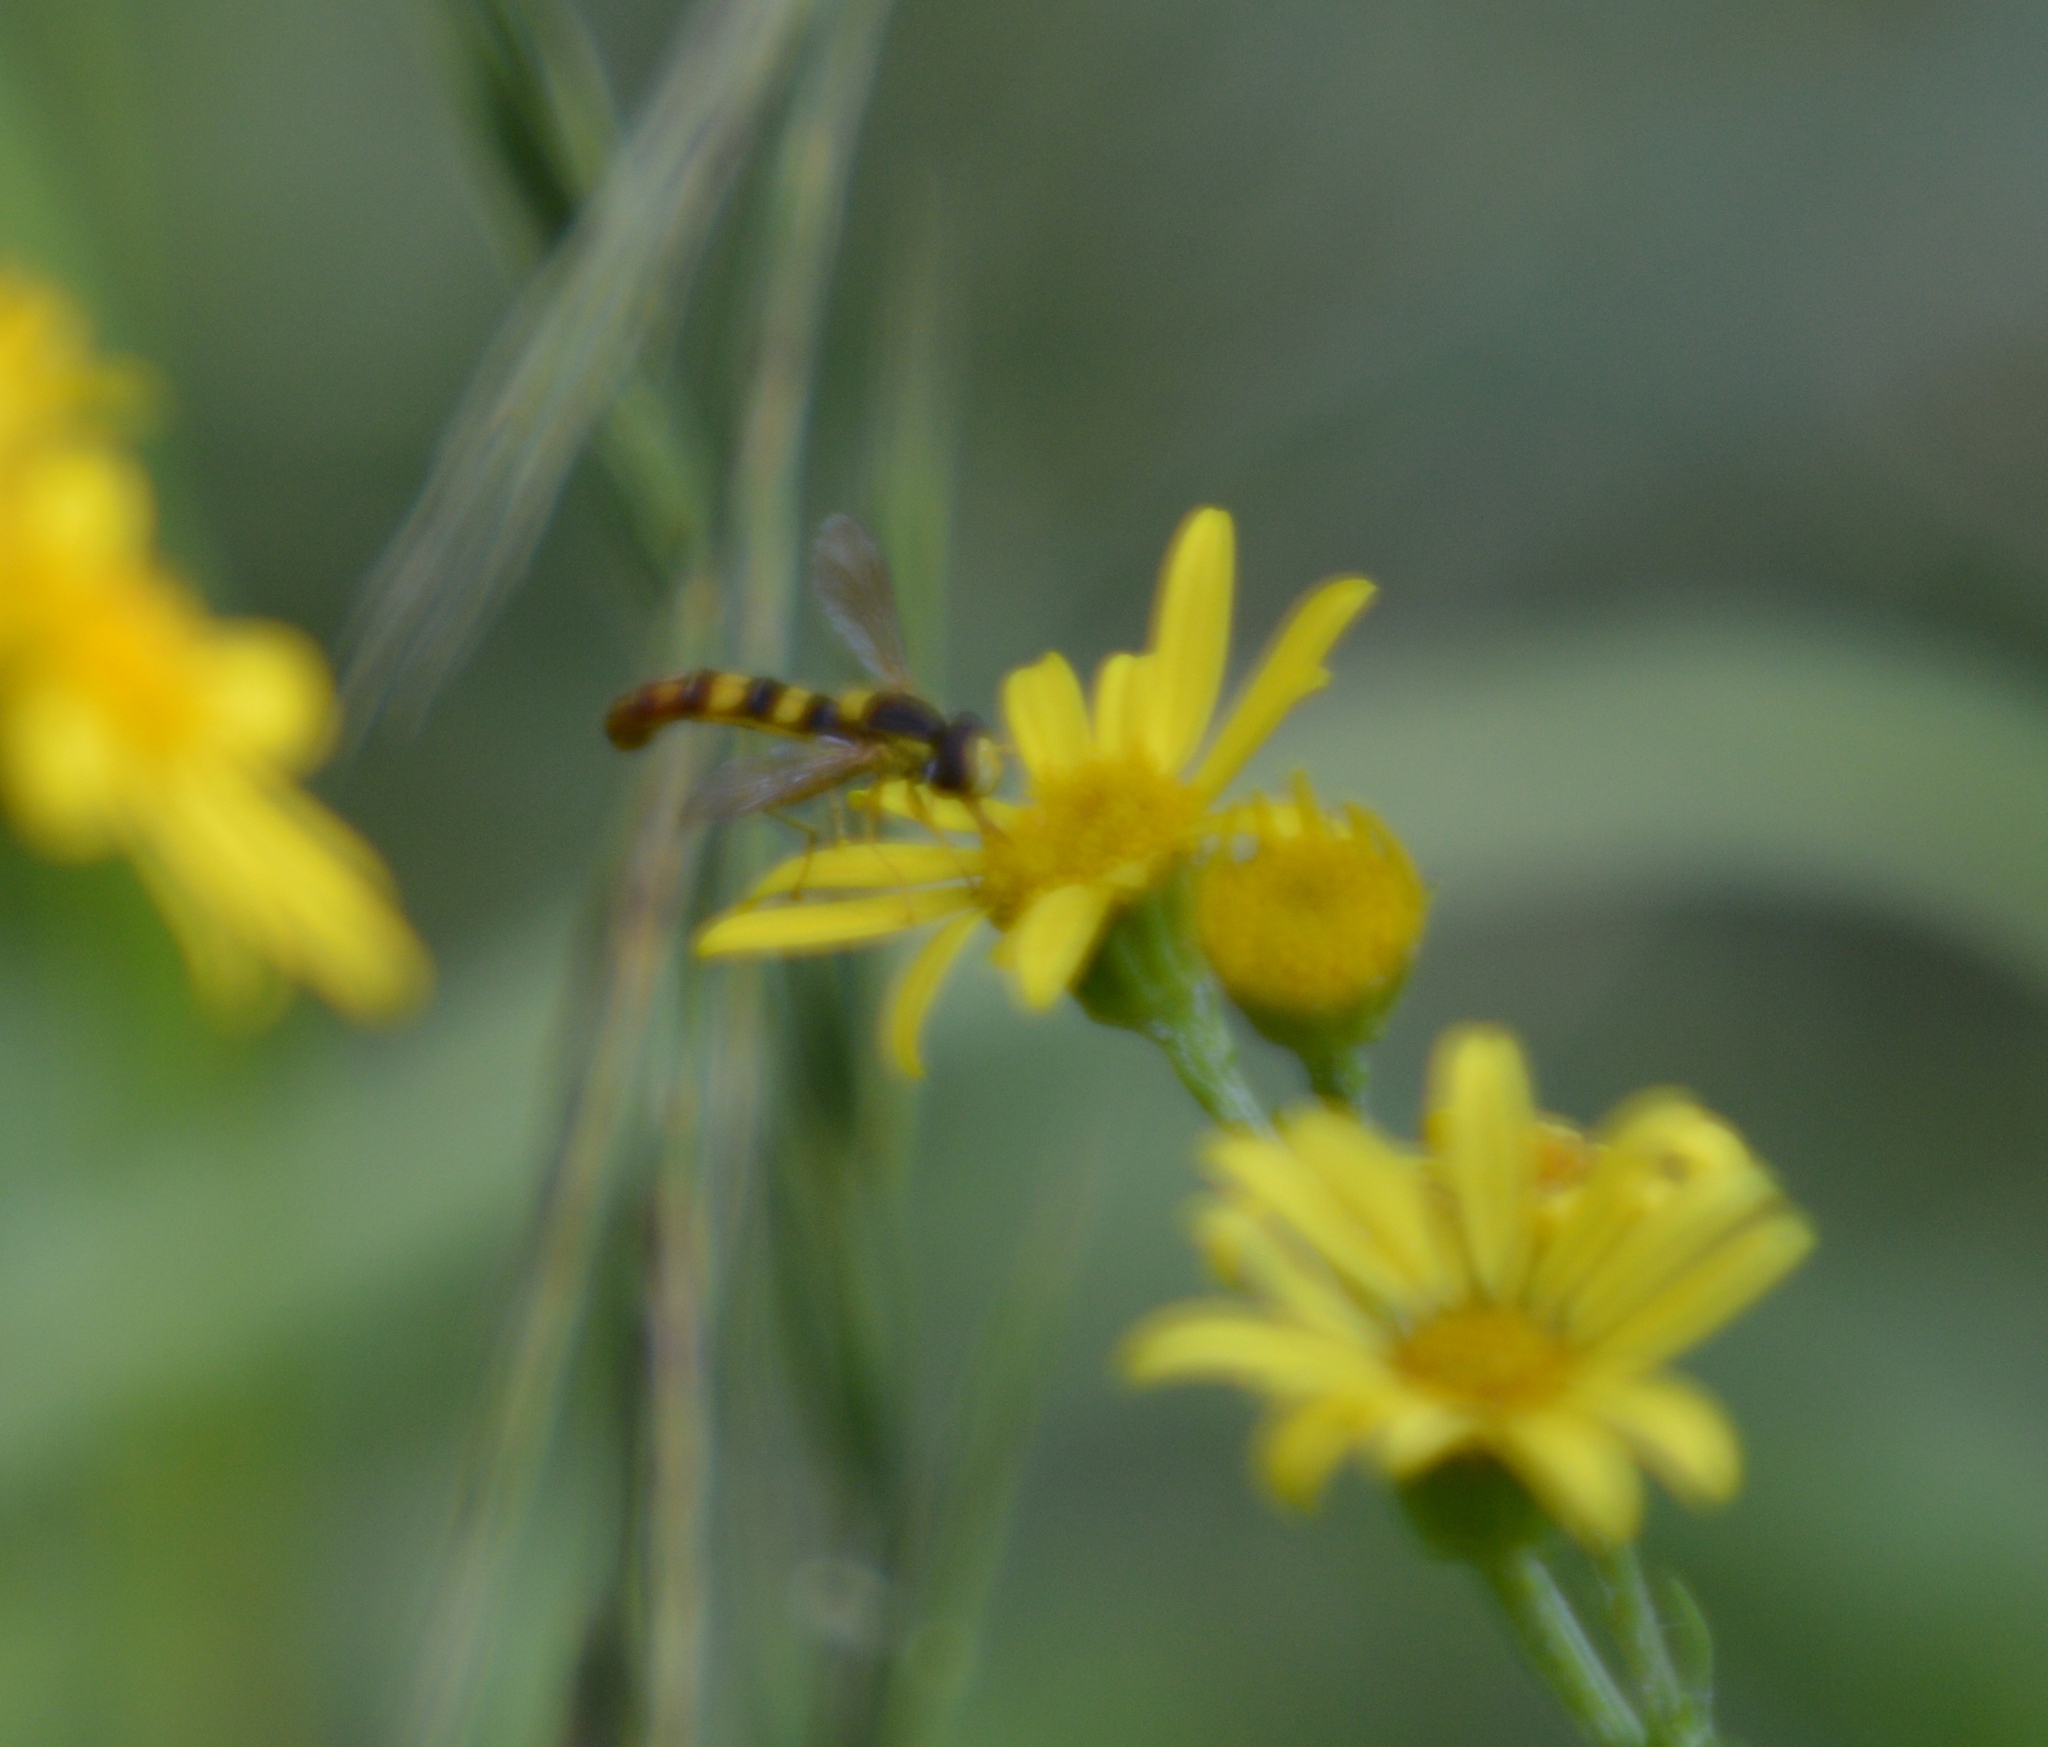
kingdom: Animalia
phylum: Arthropoda
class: Insecta
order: Diptera
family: Syrphidae
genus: Sphaerophoria
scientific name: Sphaerophoria scripta
